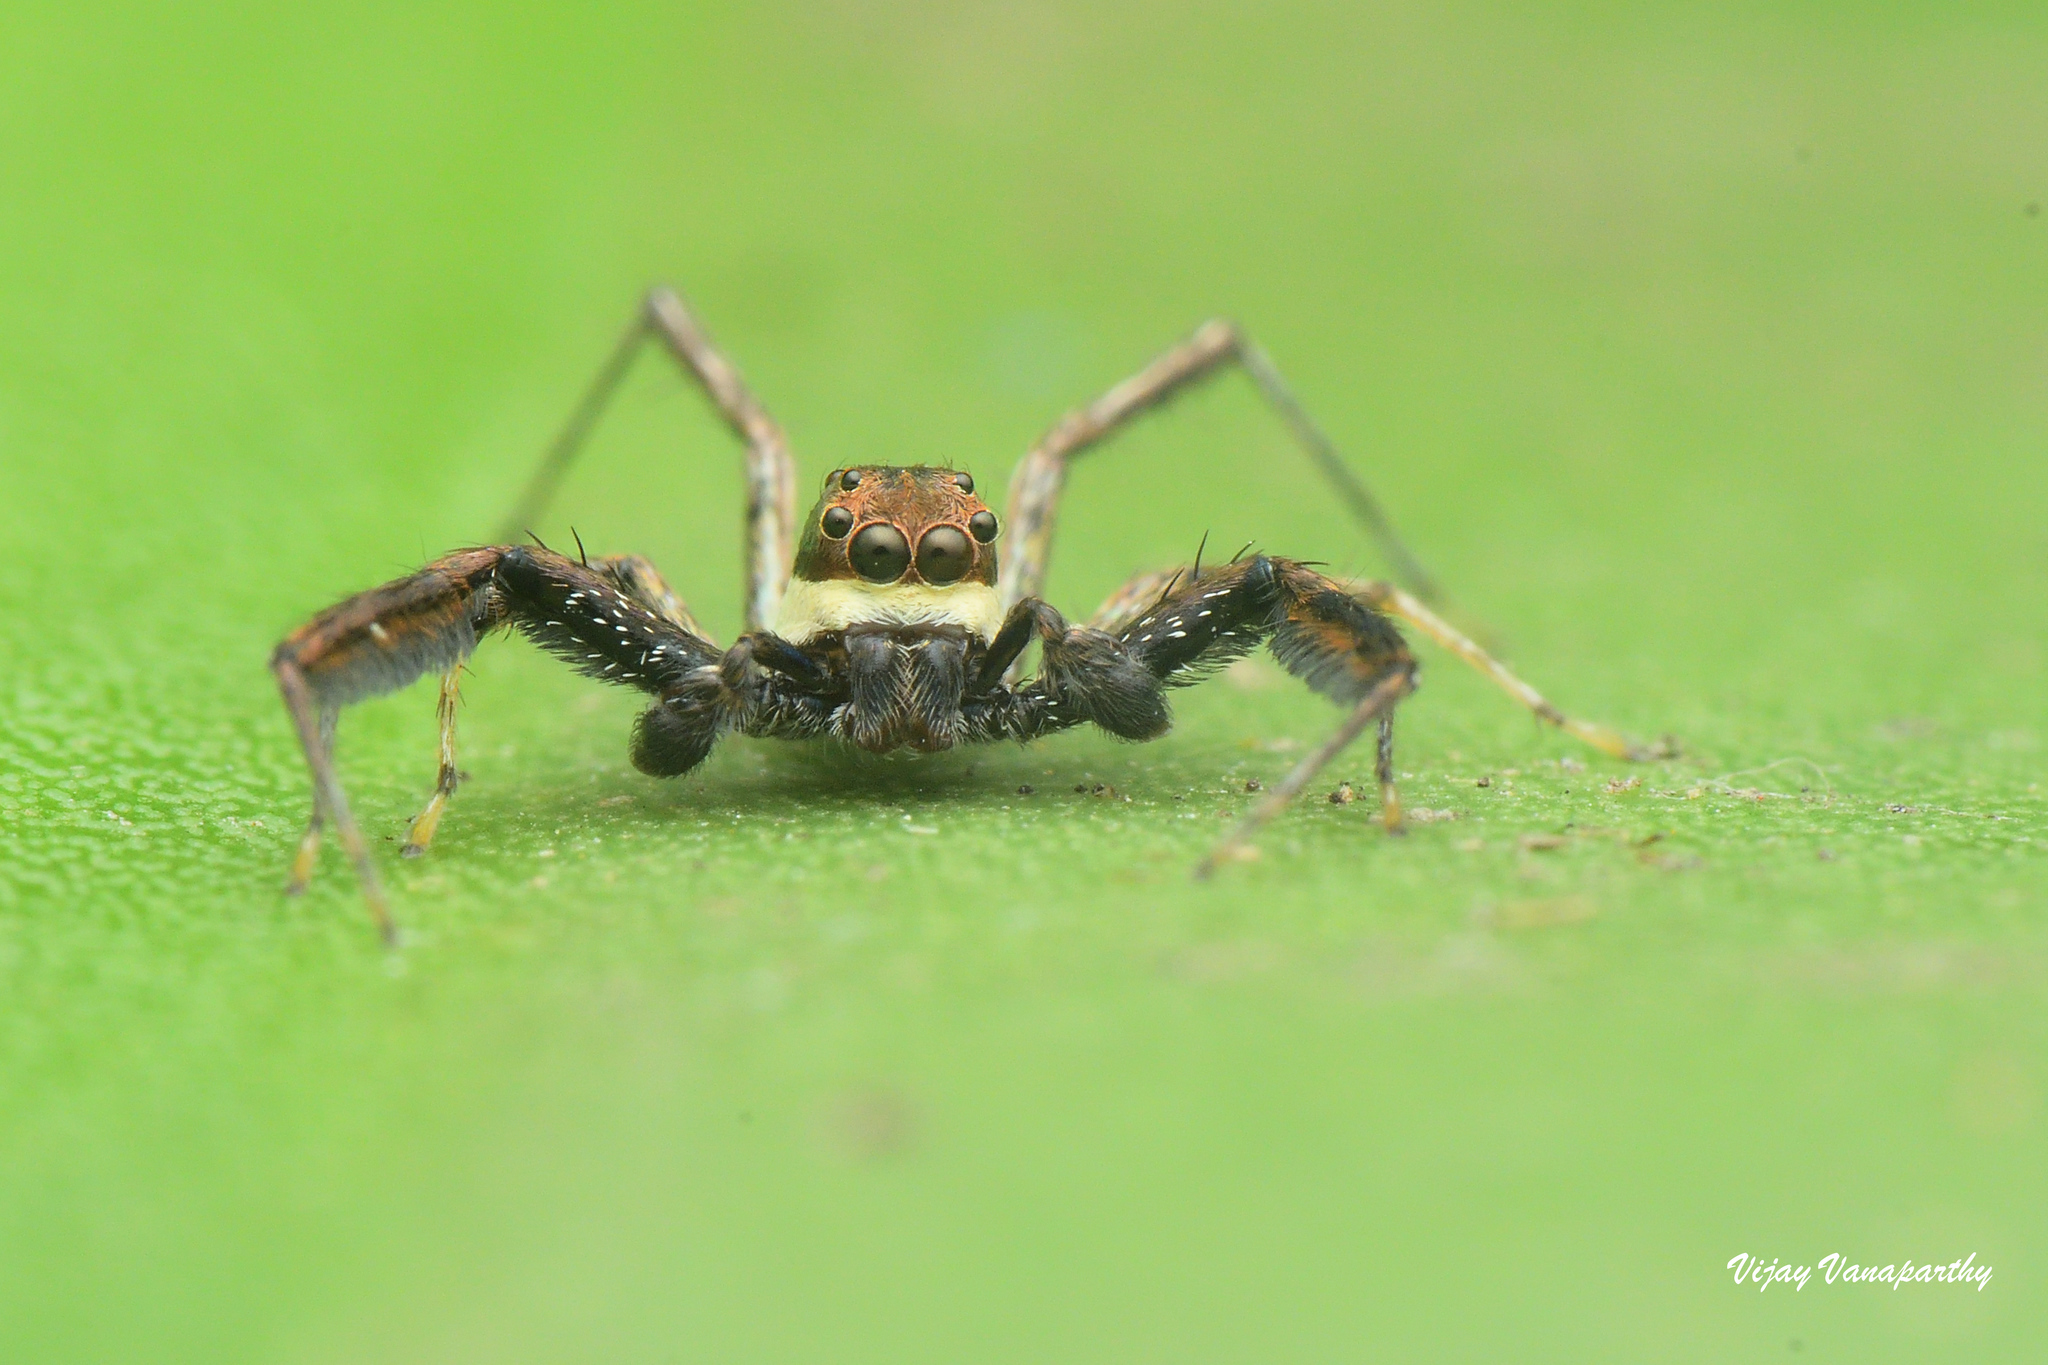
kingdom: Animalia
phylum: Arthropoda
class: Arachnida
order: Araneae
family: Salticidae
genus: Brettus
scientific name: Brettus cingulatus
